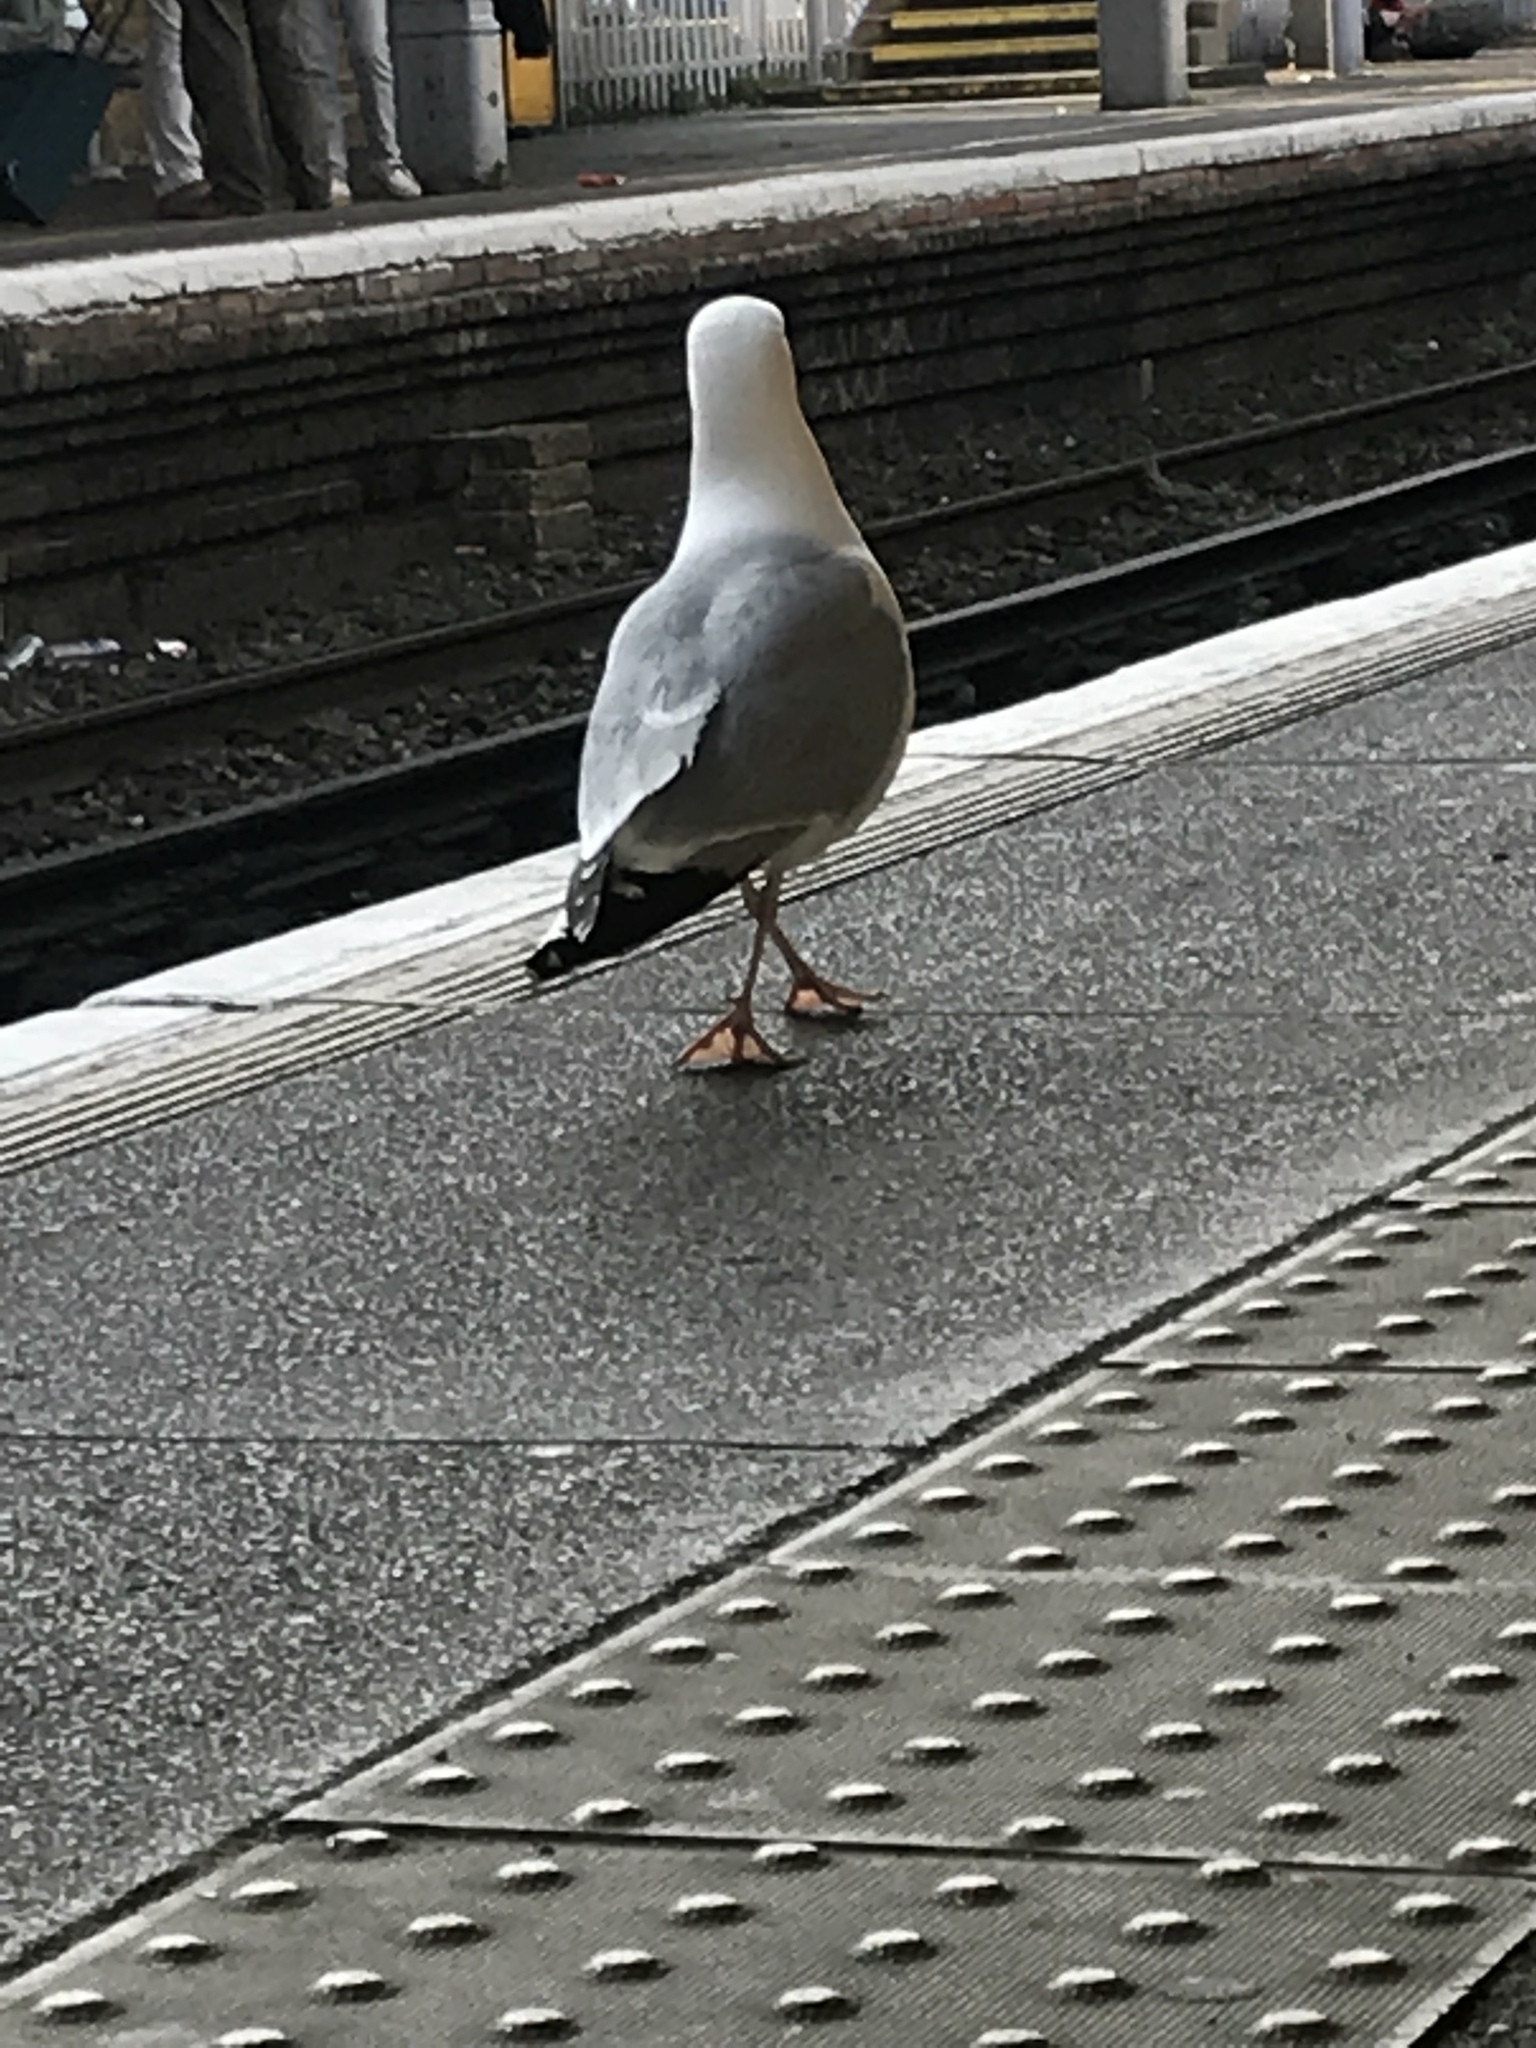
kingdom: Animalia
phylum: Chordata
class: Aves
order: Charadriiformes
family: Laridae
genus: Larus
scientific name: Larus argentatus
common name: Herring gull
